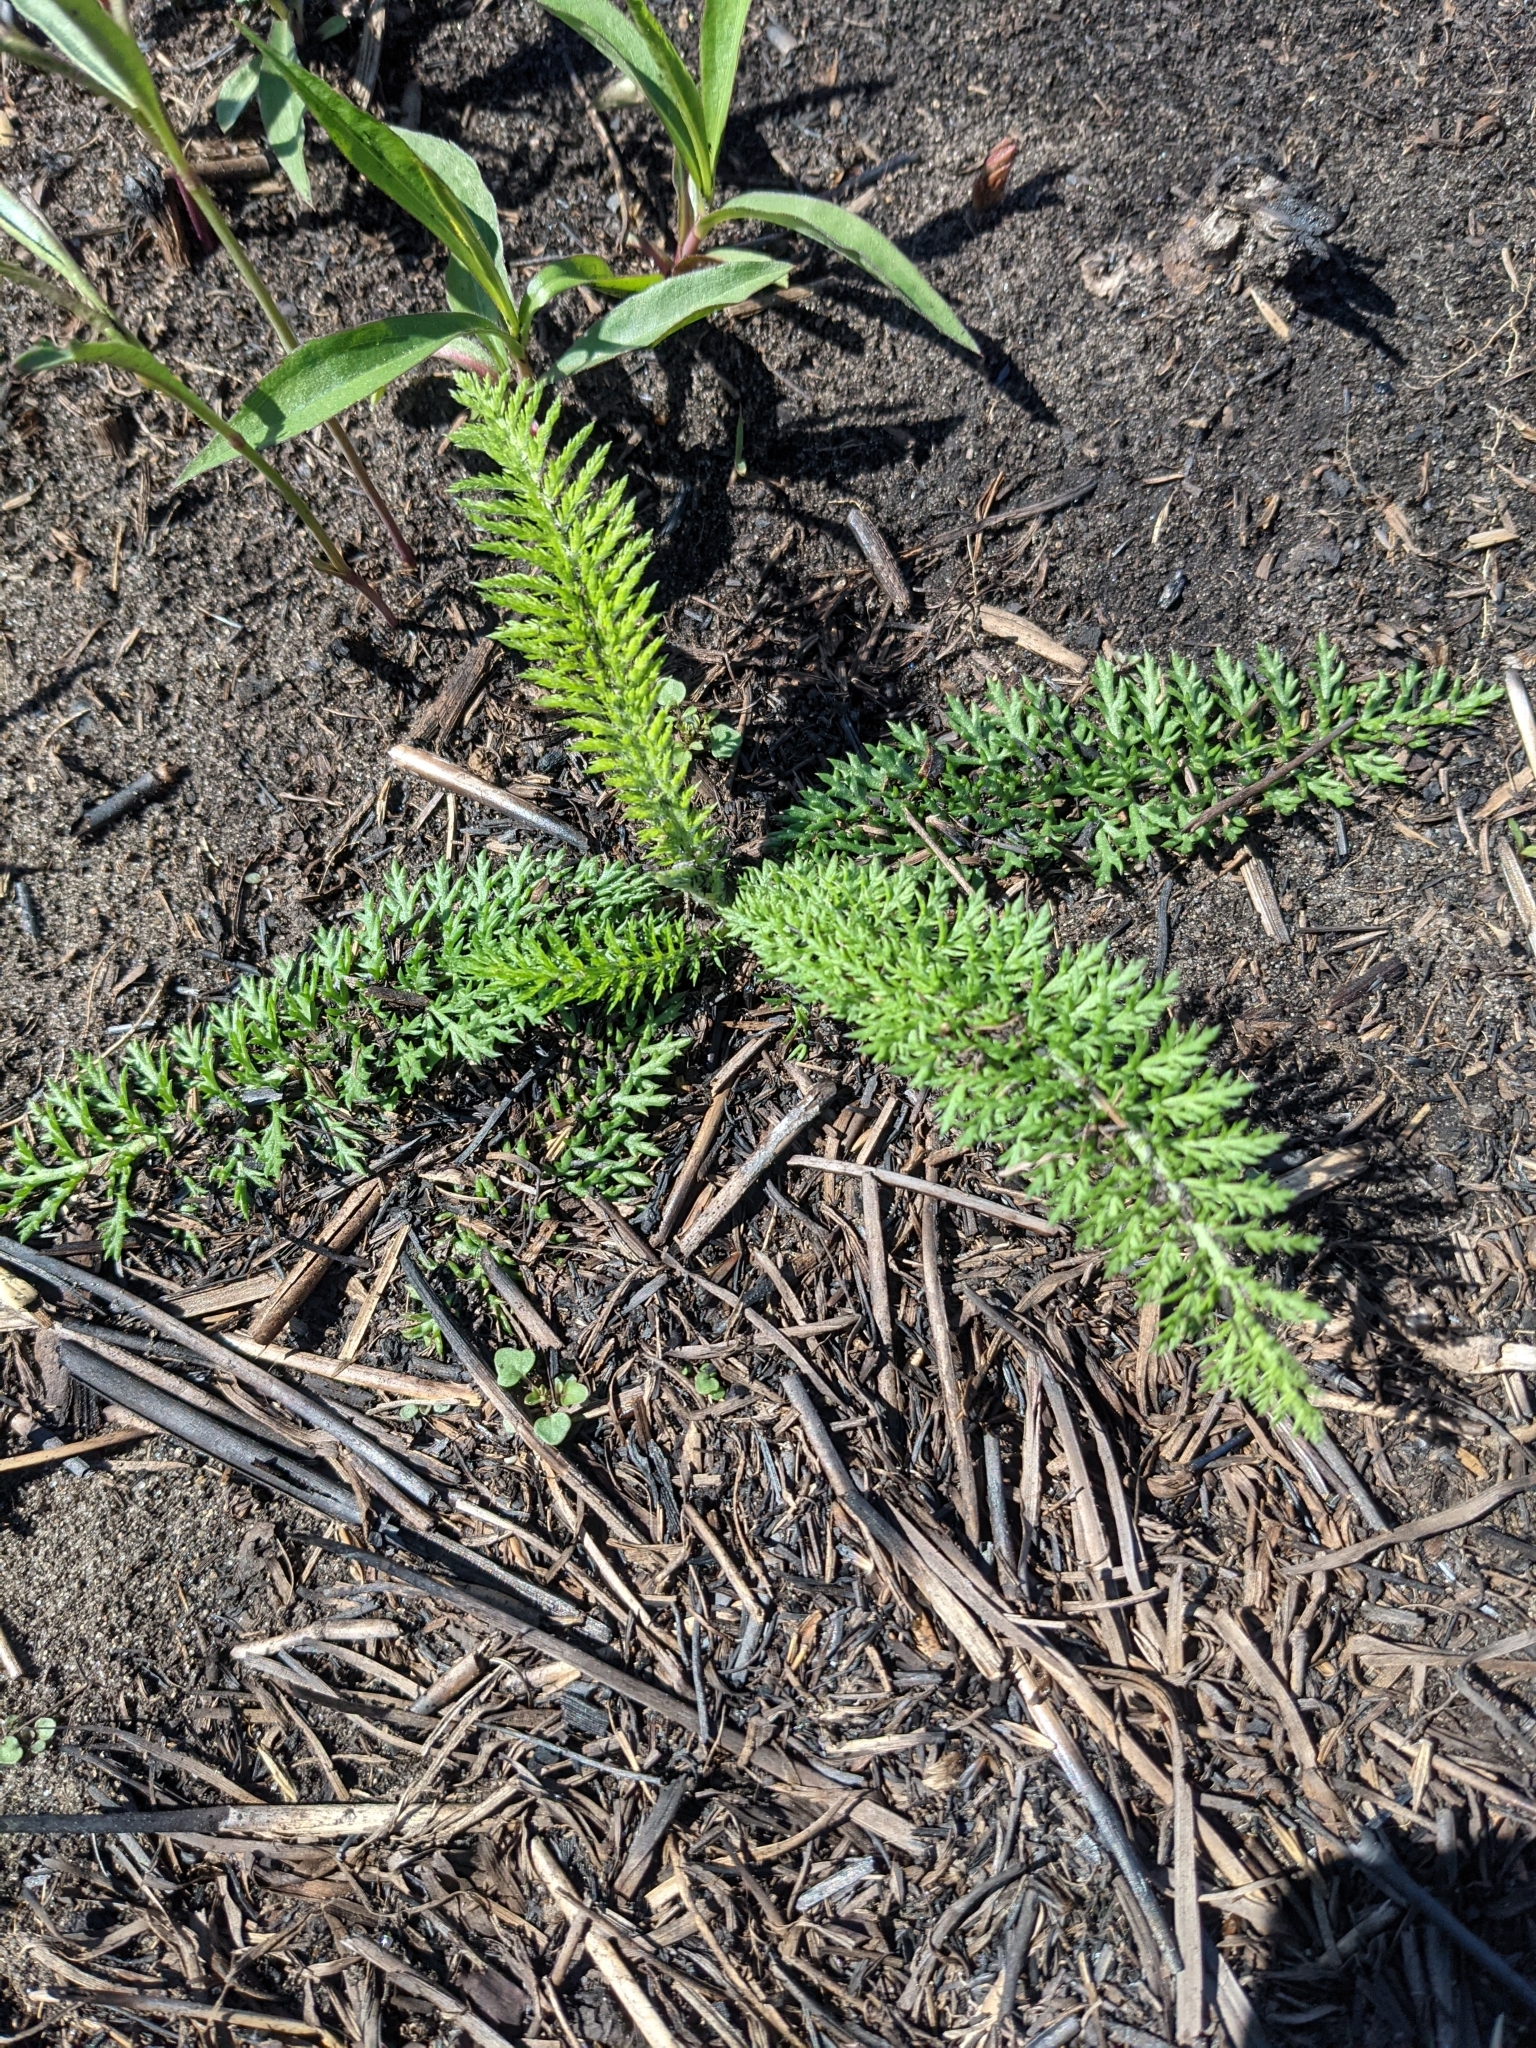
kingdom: Plantae
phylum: Tracheophyta
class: Magnoliopsida
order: Asterales
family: Asteraceae
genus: Achillea
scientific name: Achillea millefolium
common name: Yarrow
